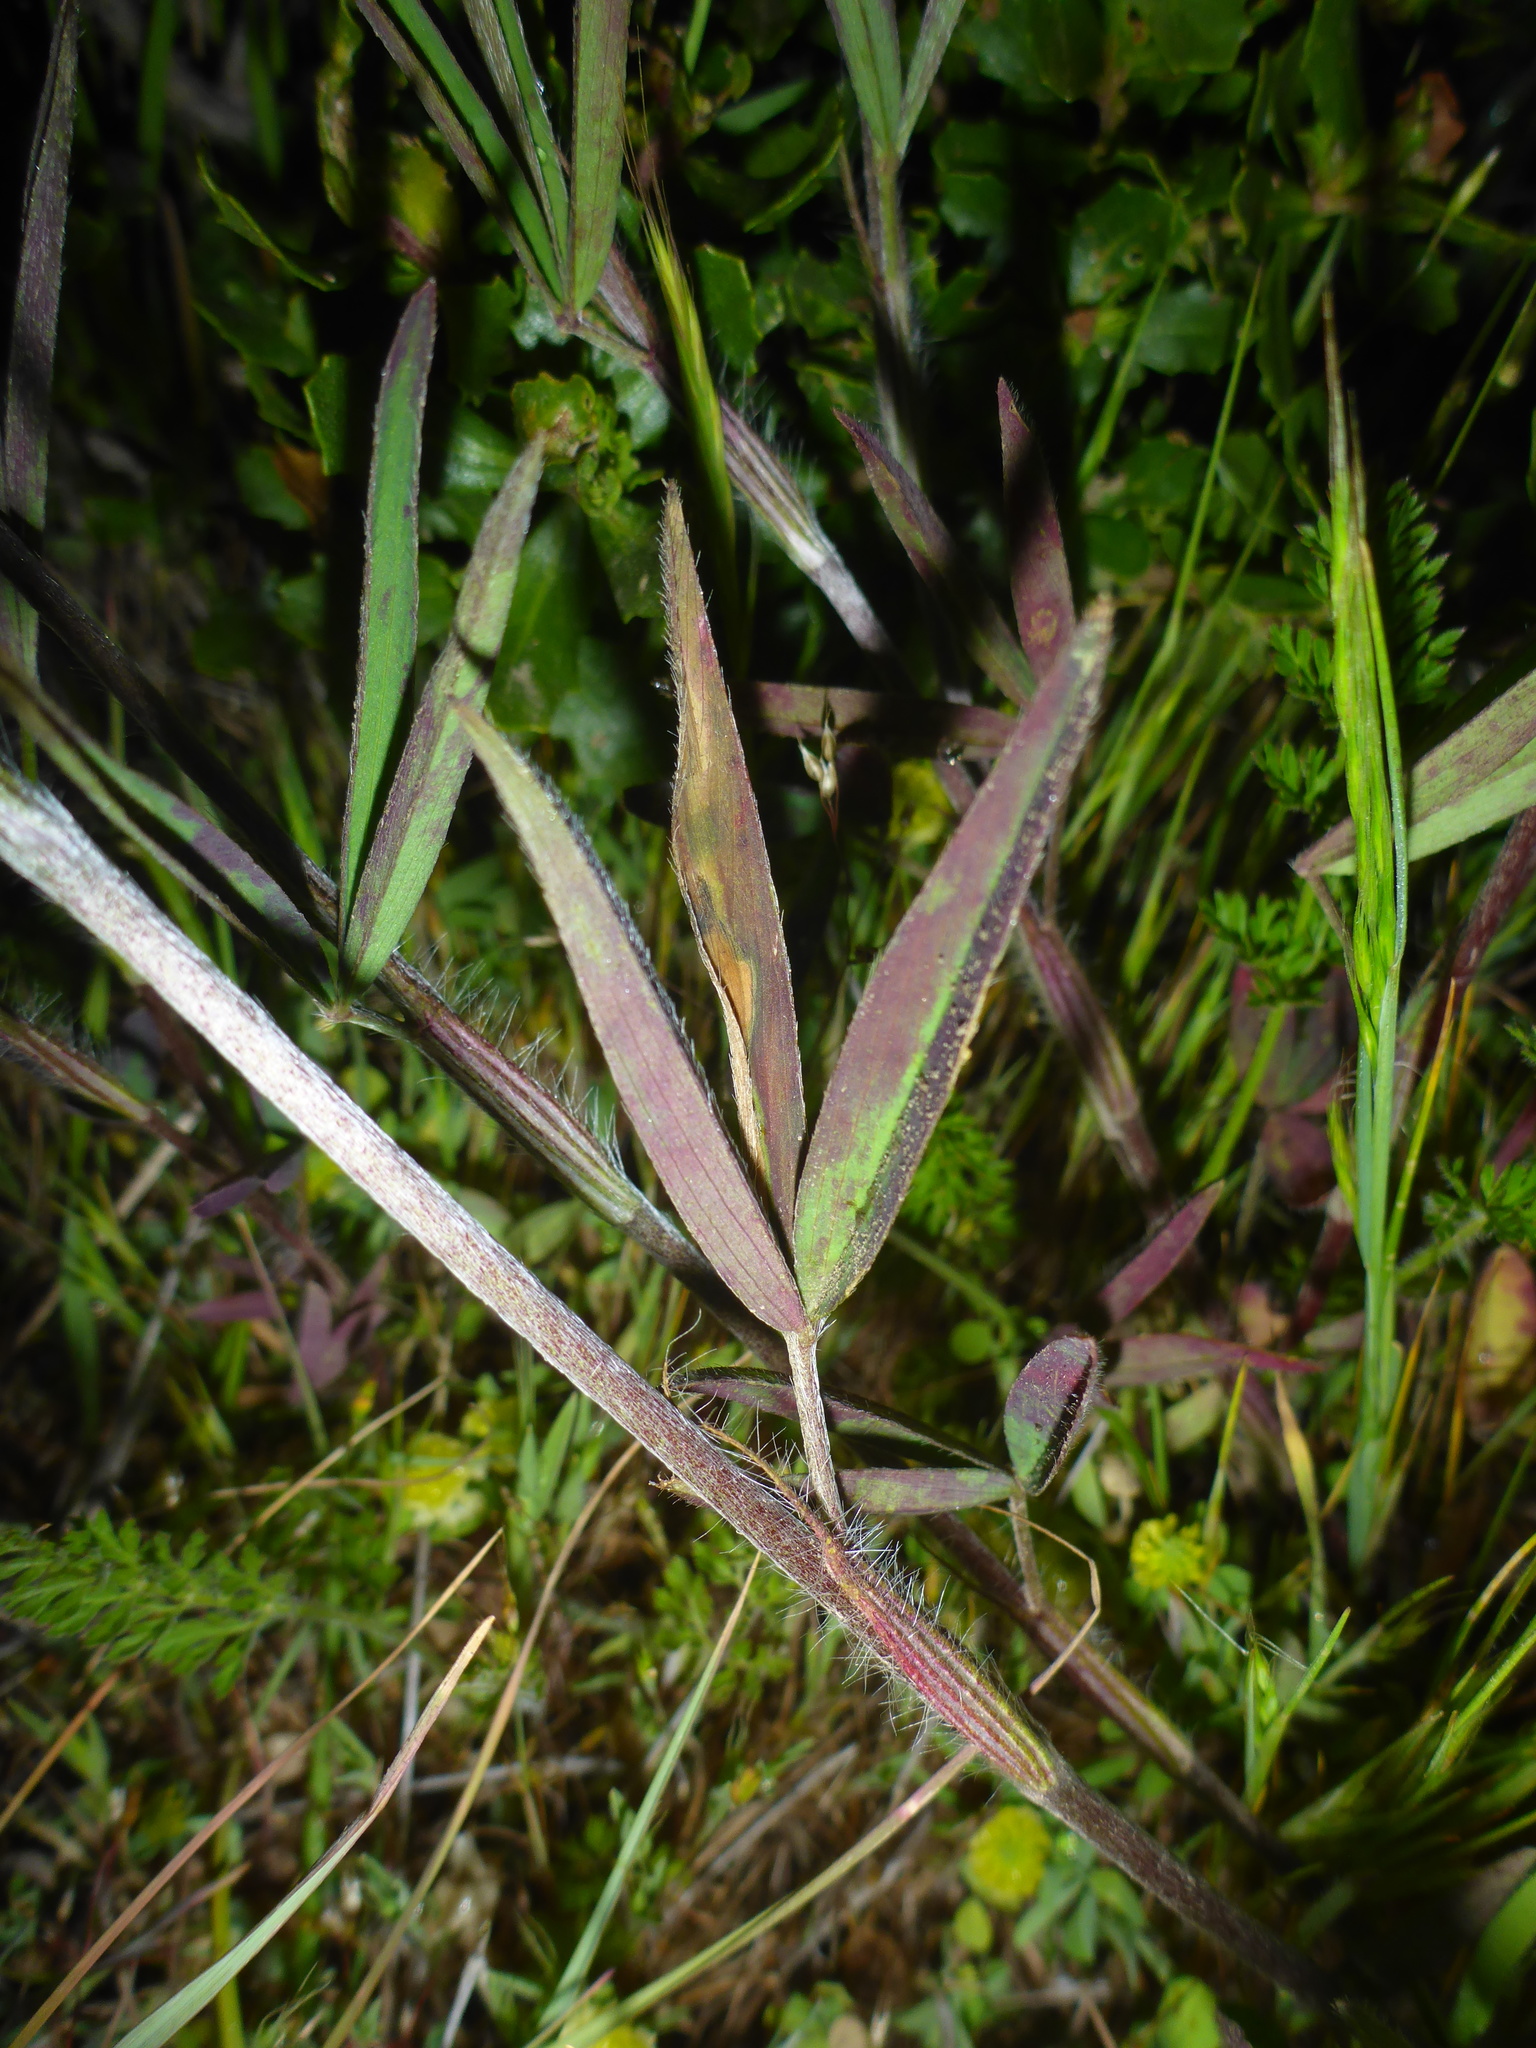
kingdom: Plantae
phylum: Tracheophyta
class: Magnoliopsida
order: Fabales
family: Fabaceae
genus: Trifolium
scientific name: Trifolium angustifolium
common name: Narrow clover
